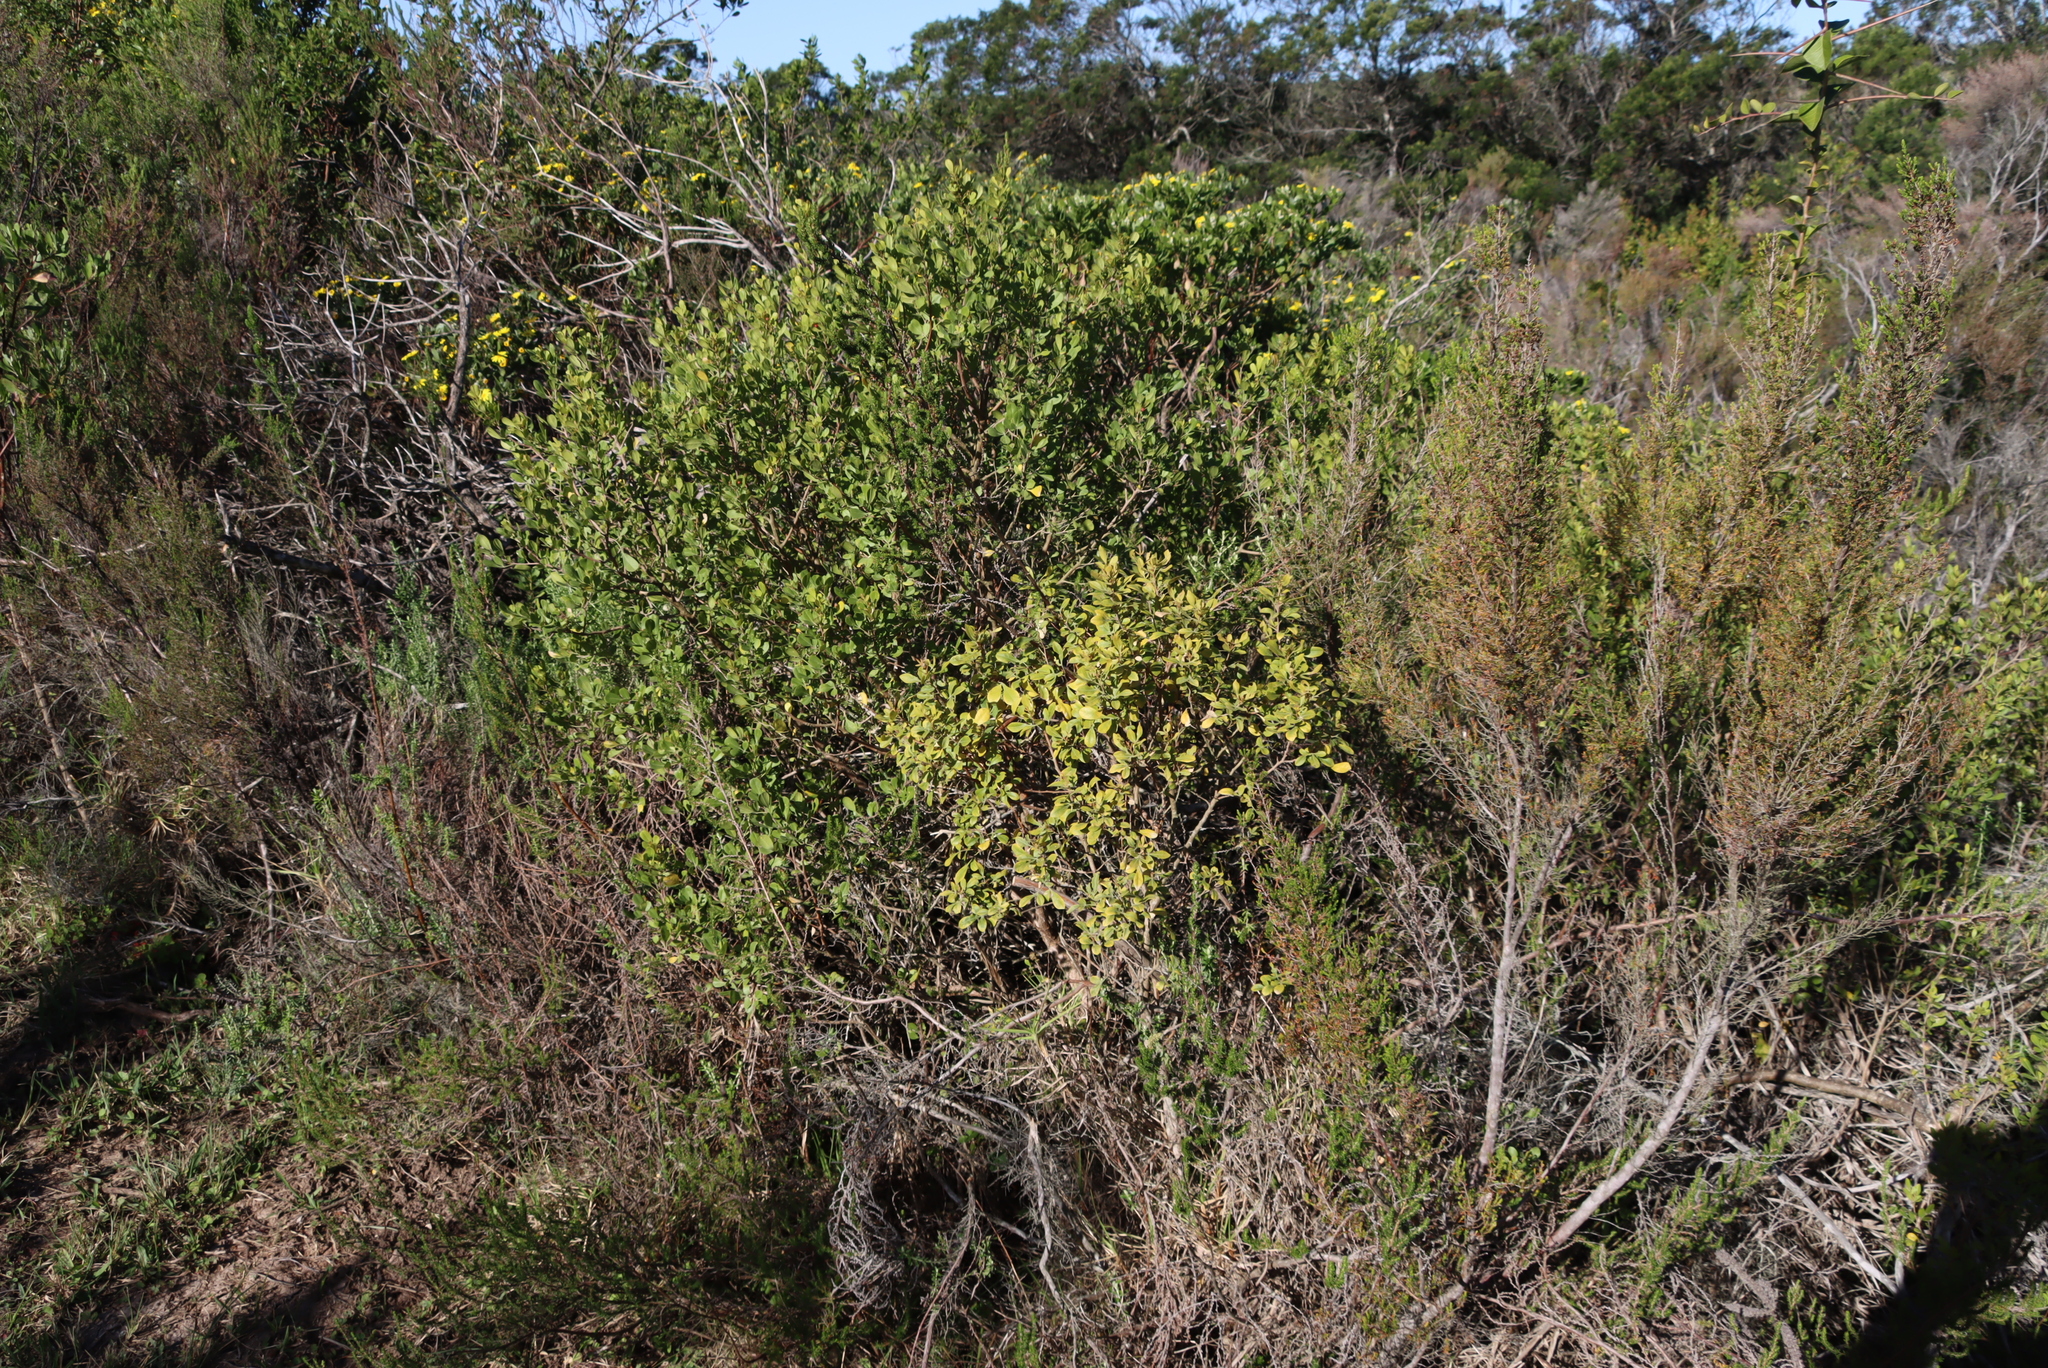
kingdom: Plantae
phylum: Tracheophyta
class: Magnoliopsida
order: Malpighiales
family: Salicaceae
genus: Scolopia
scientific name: Scolopia mundii
